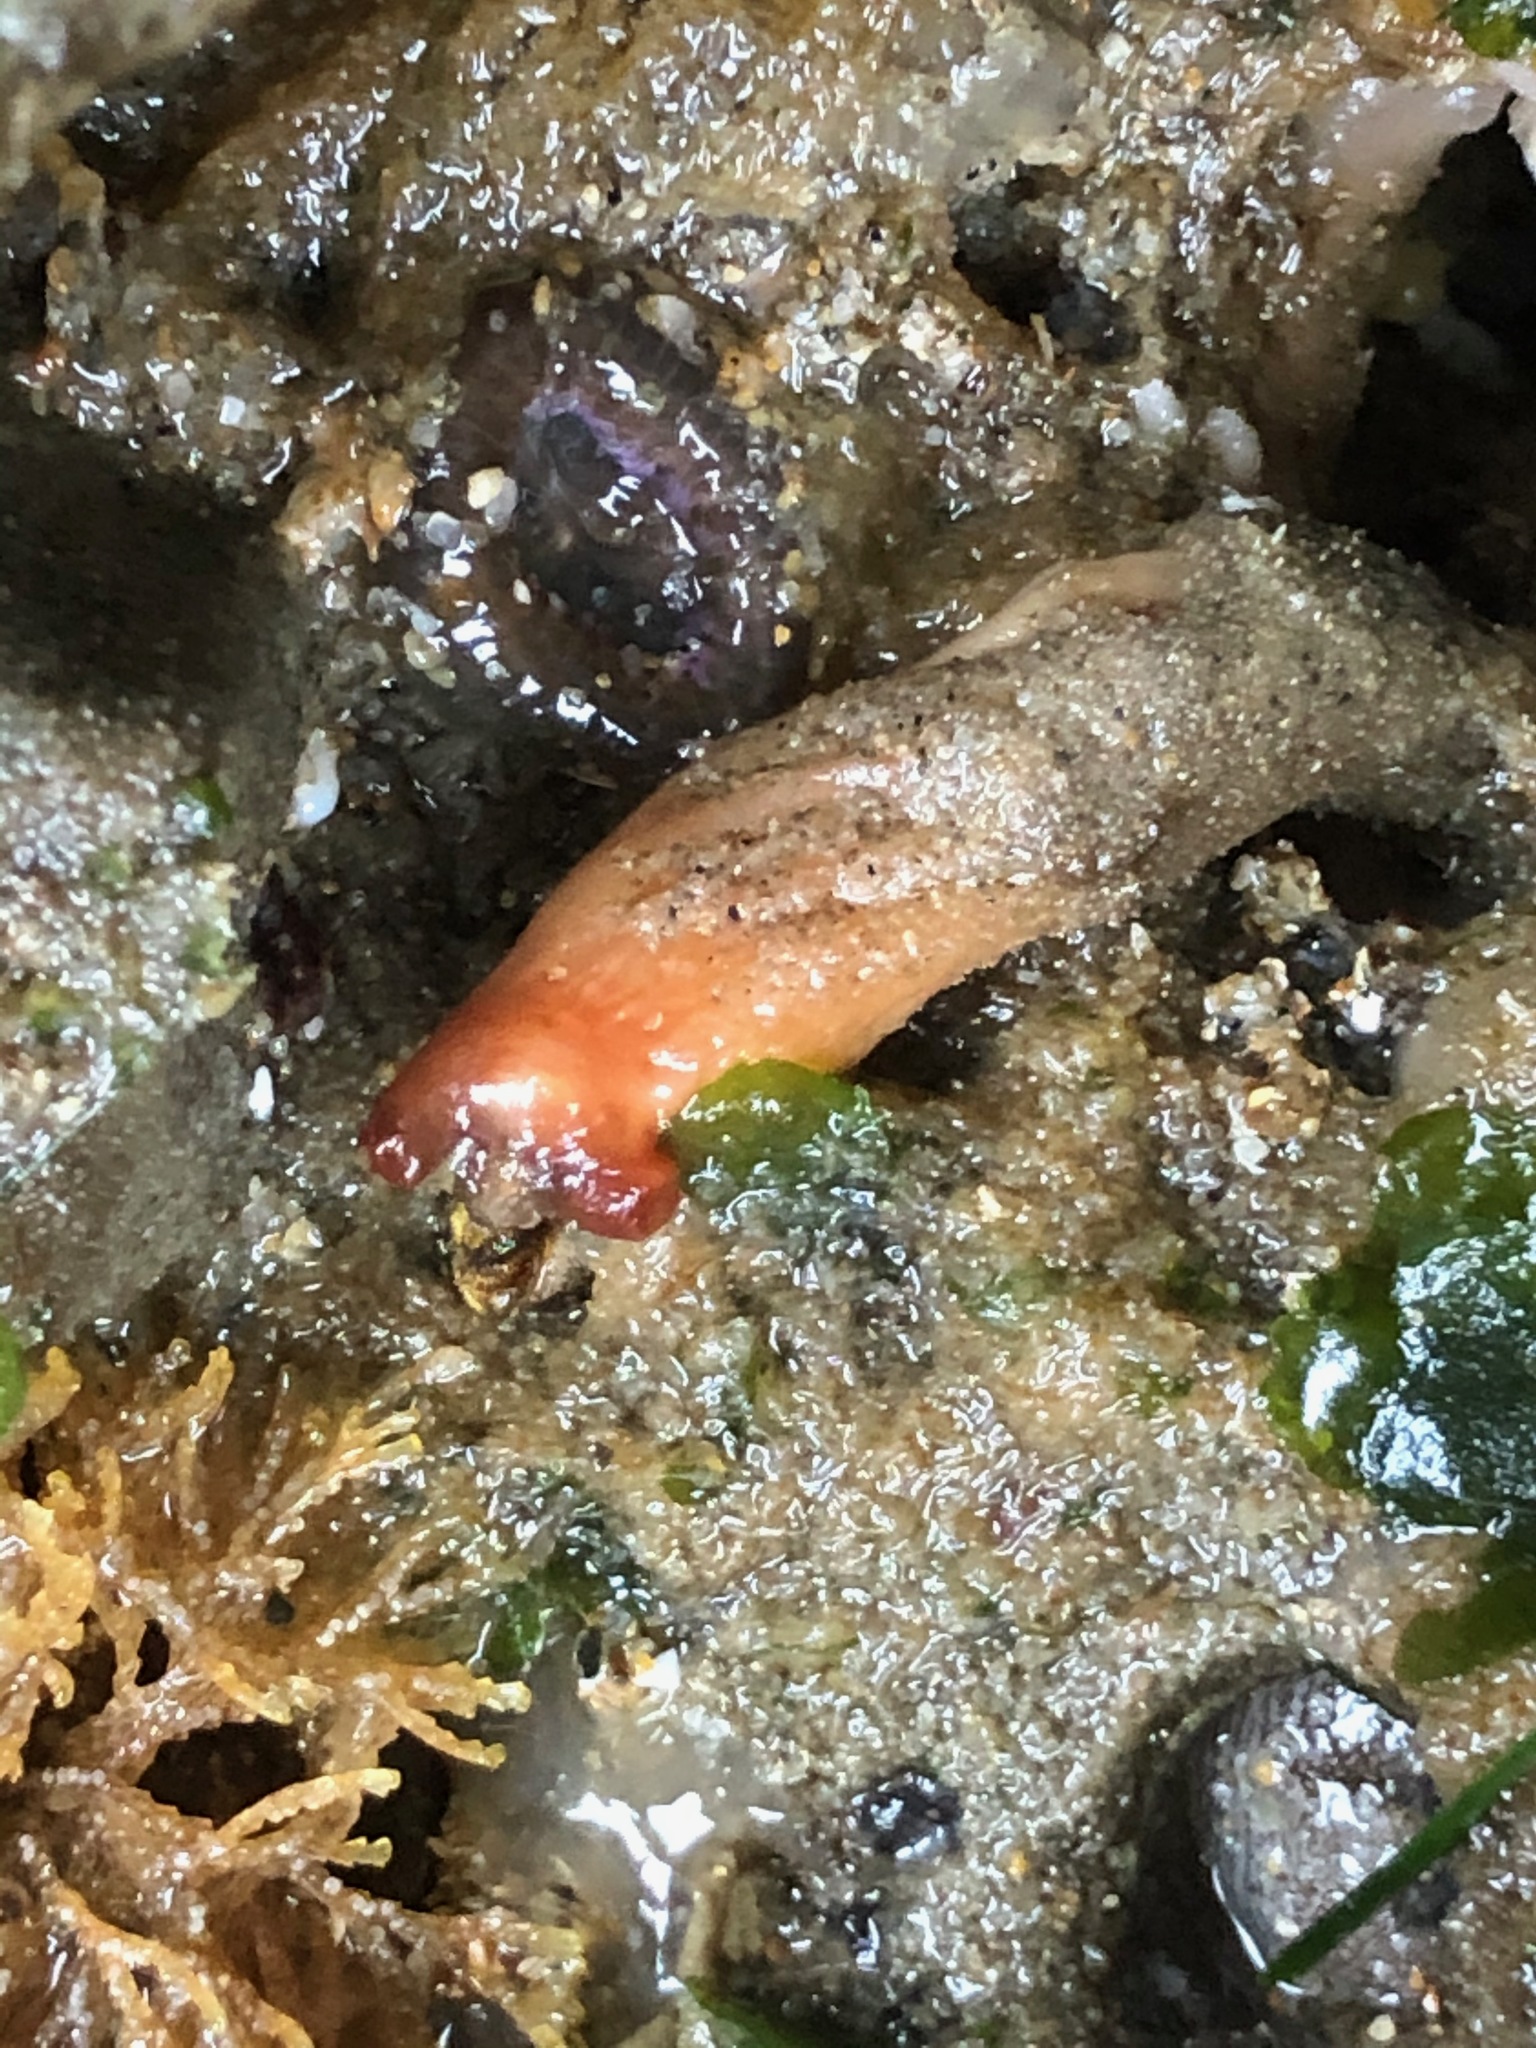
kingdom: Animalia
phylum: Chordata
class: Ascidiacea
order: Stolidobranchia
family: Styelidae
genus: Styela
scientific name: Styela montereyensis
